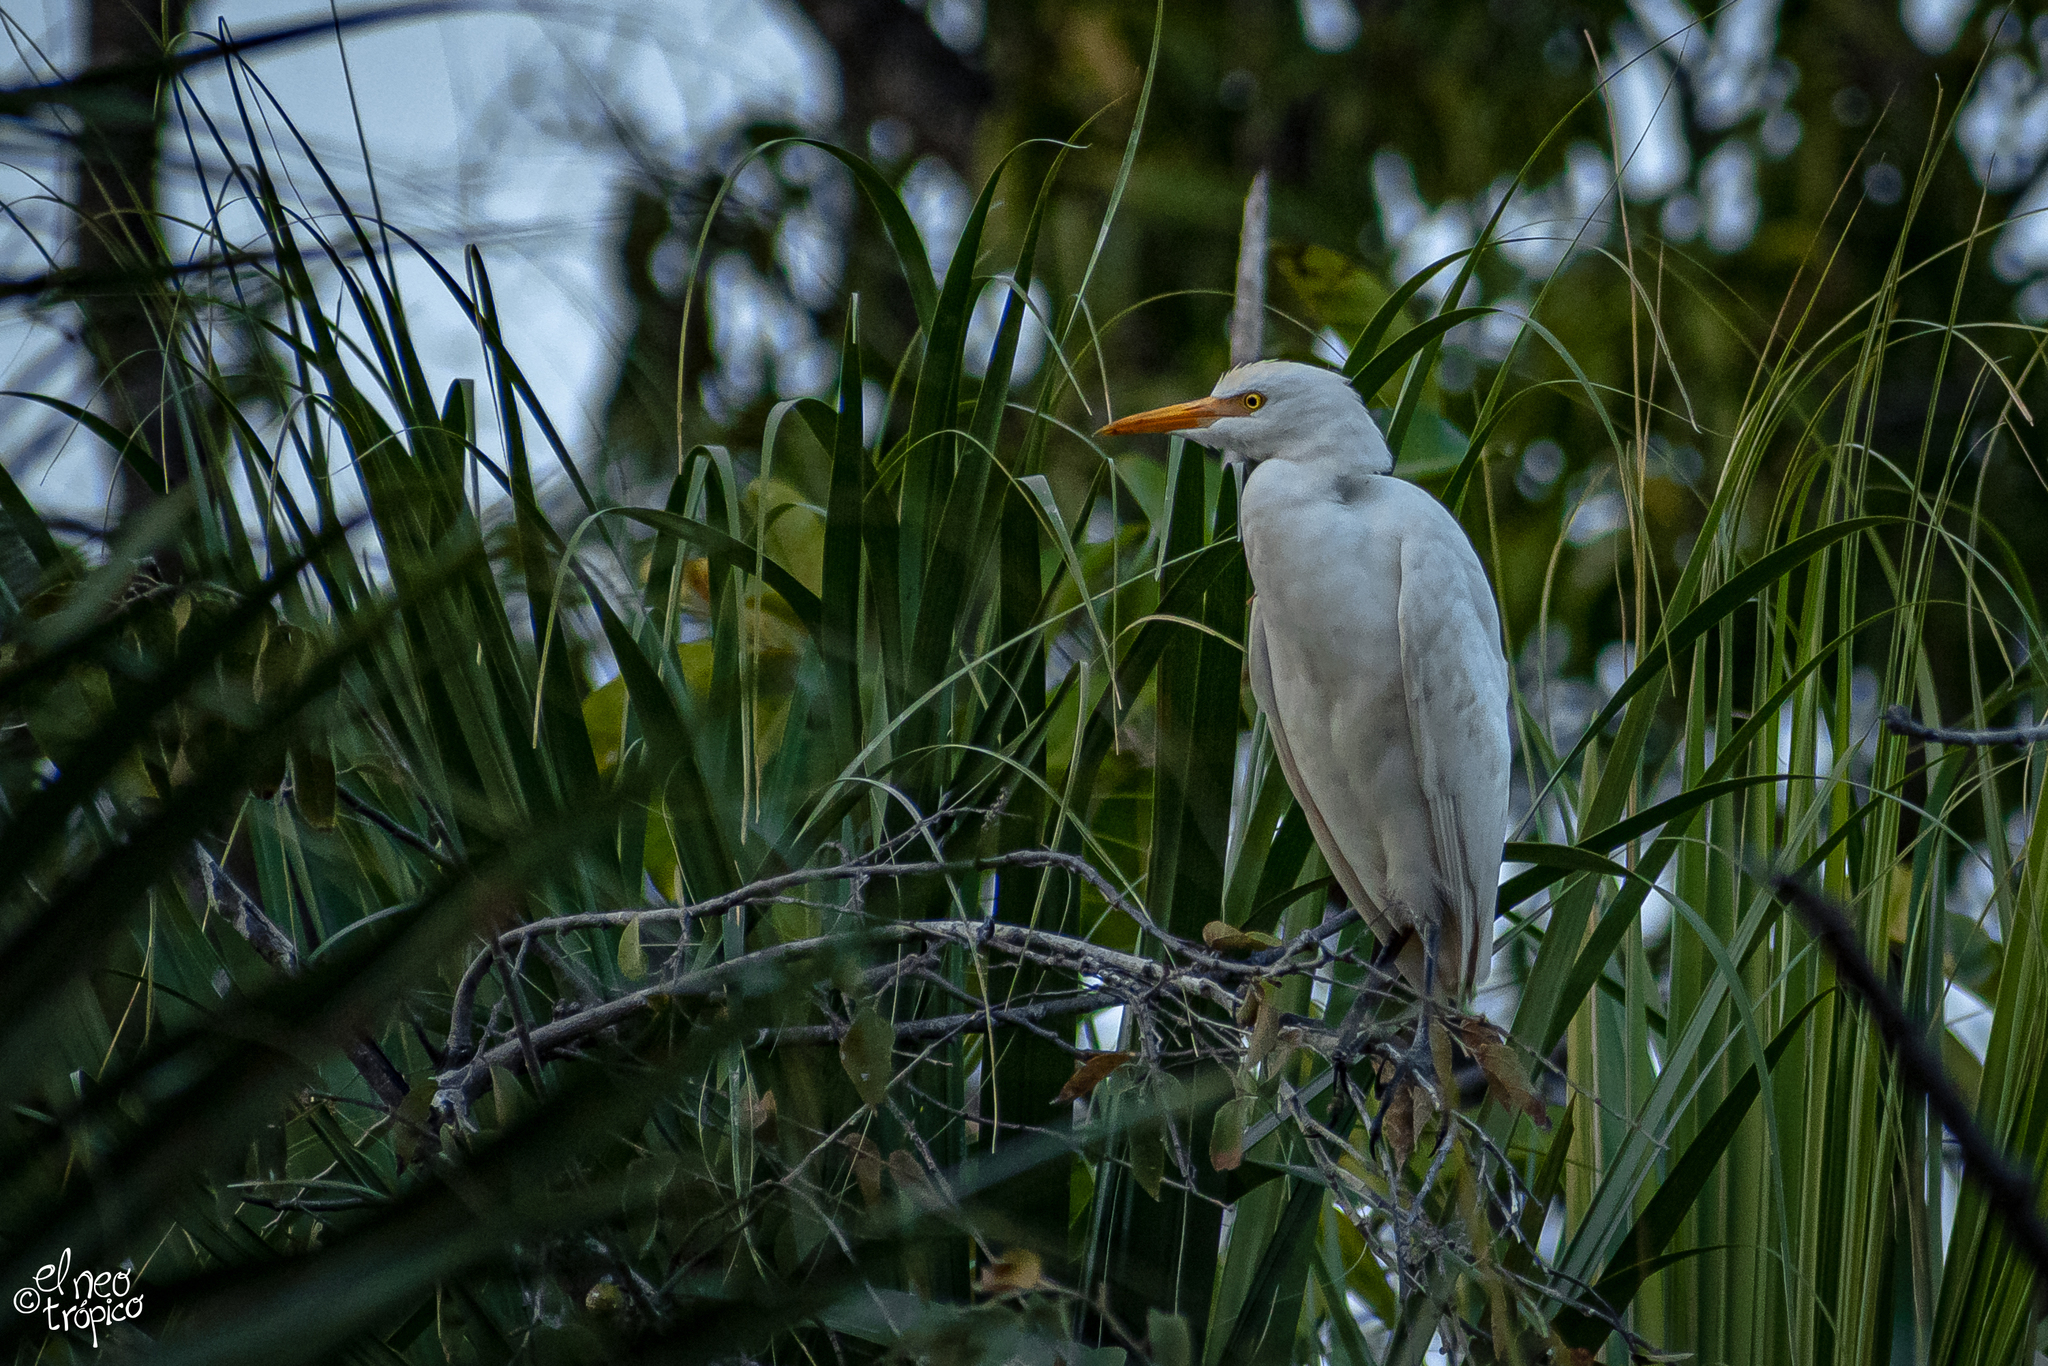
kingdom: Animalia
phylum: Chordata
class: Aves
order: Pelecaniformes
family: Ardeidae
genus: Bubulcus
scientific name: Bubulcus ibis
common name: Cattle egret
